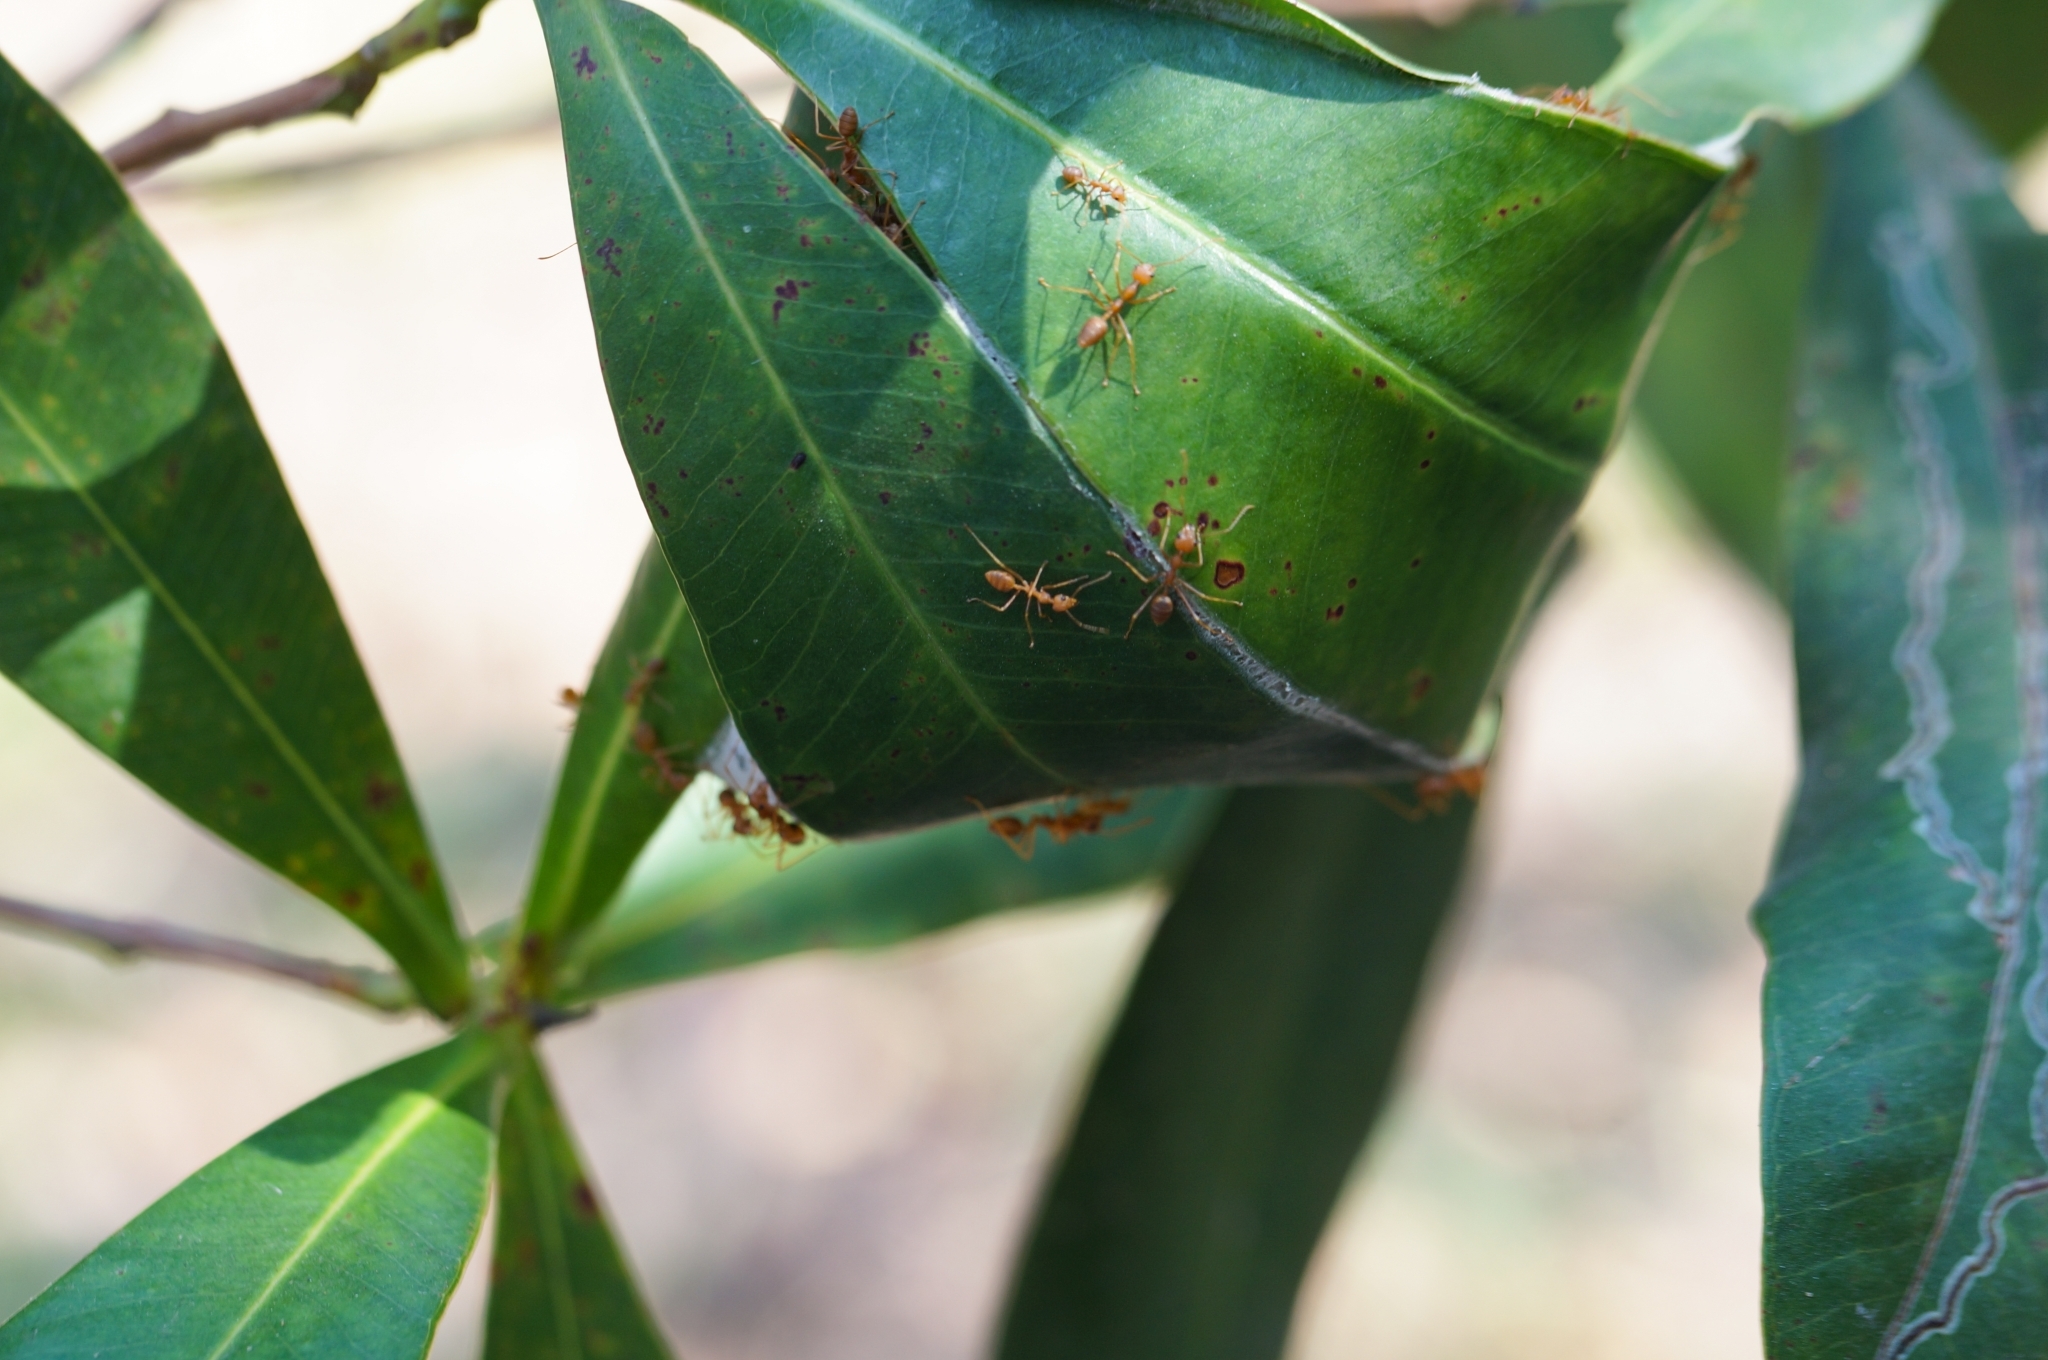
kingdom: Animalia
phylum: Arthropoda
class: Insecta
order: Hymenoptera
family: Formicidae
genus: Oecophylla
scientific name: Oecophylla smaragdina
